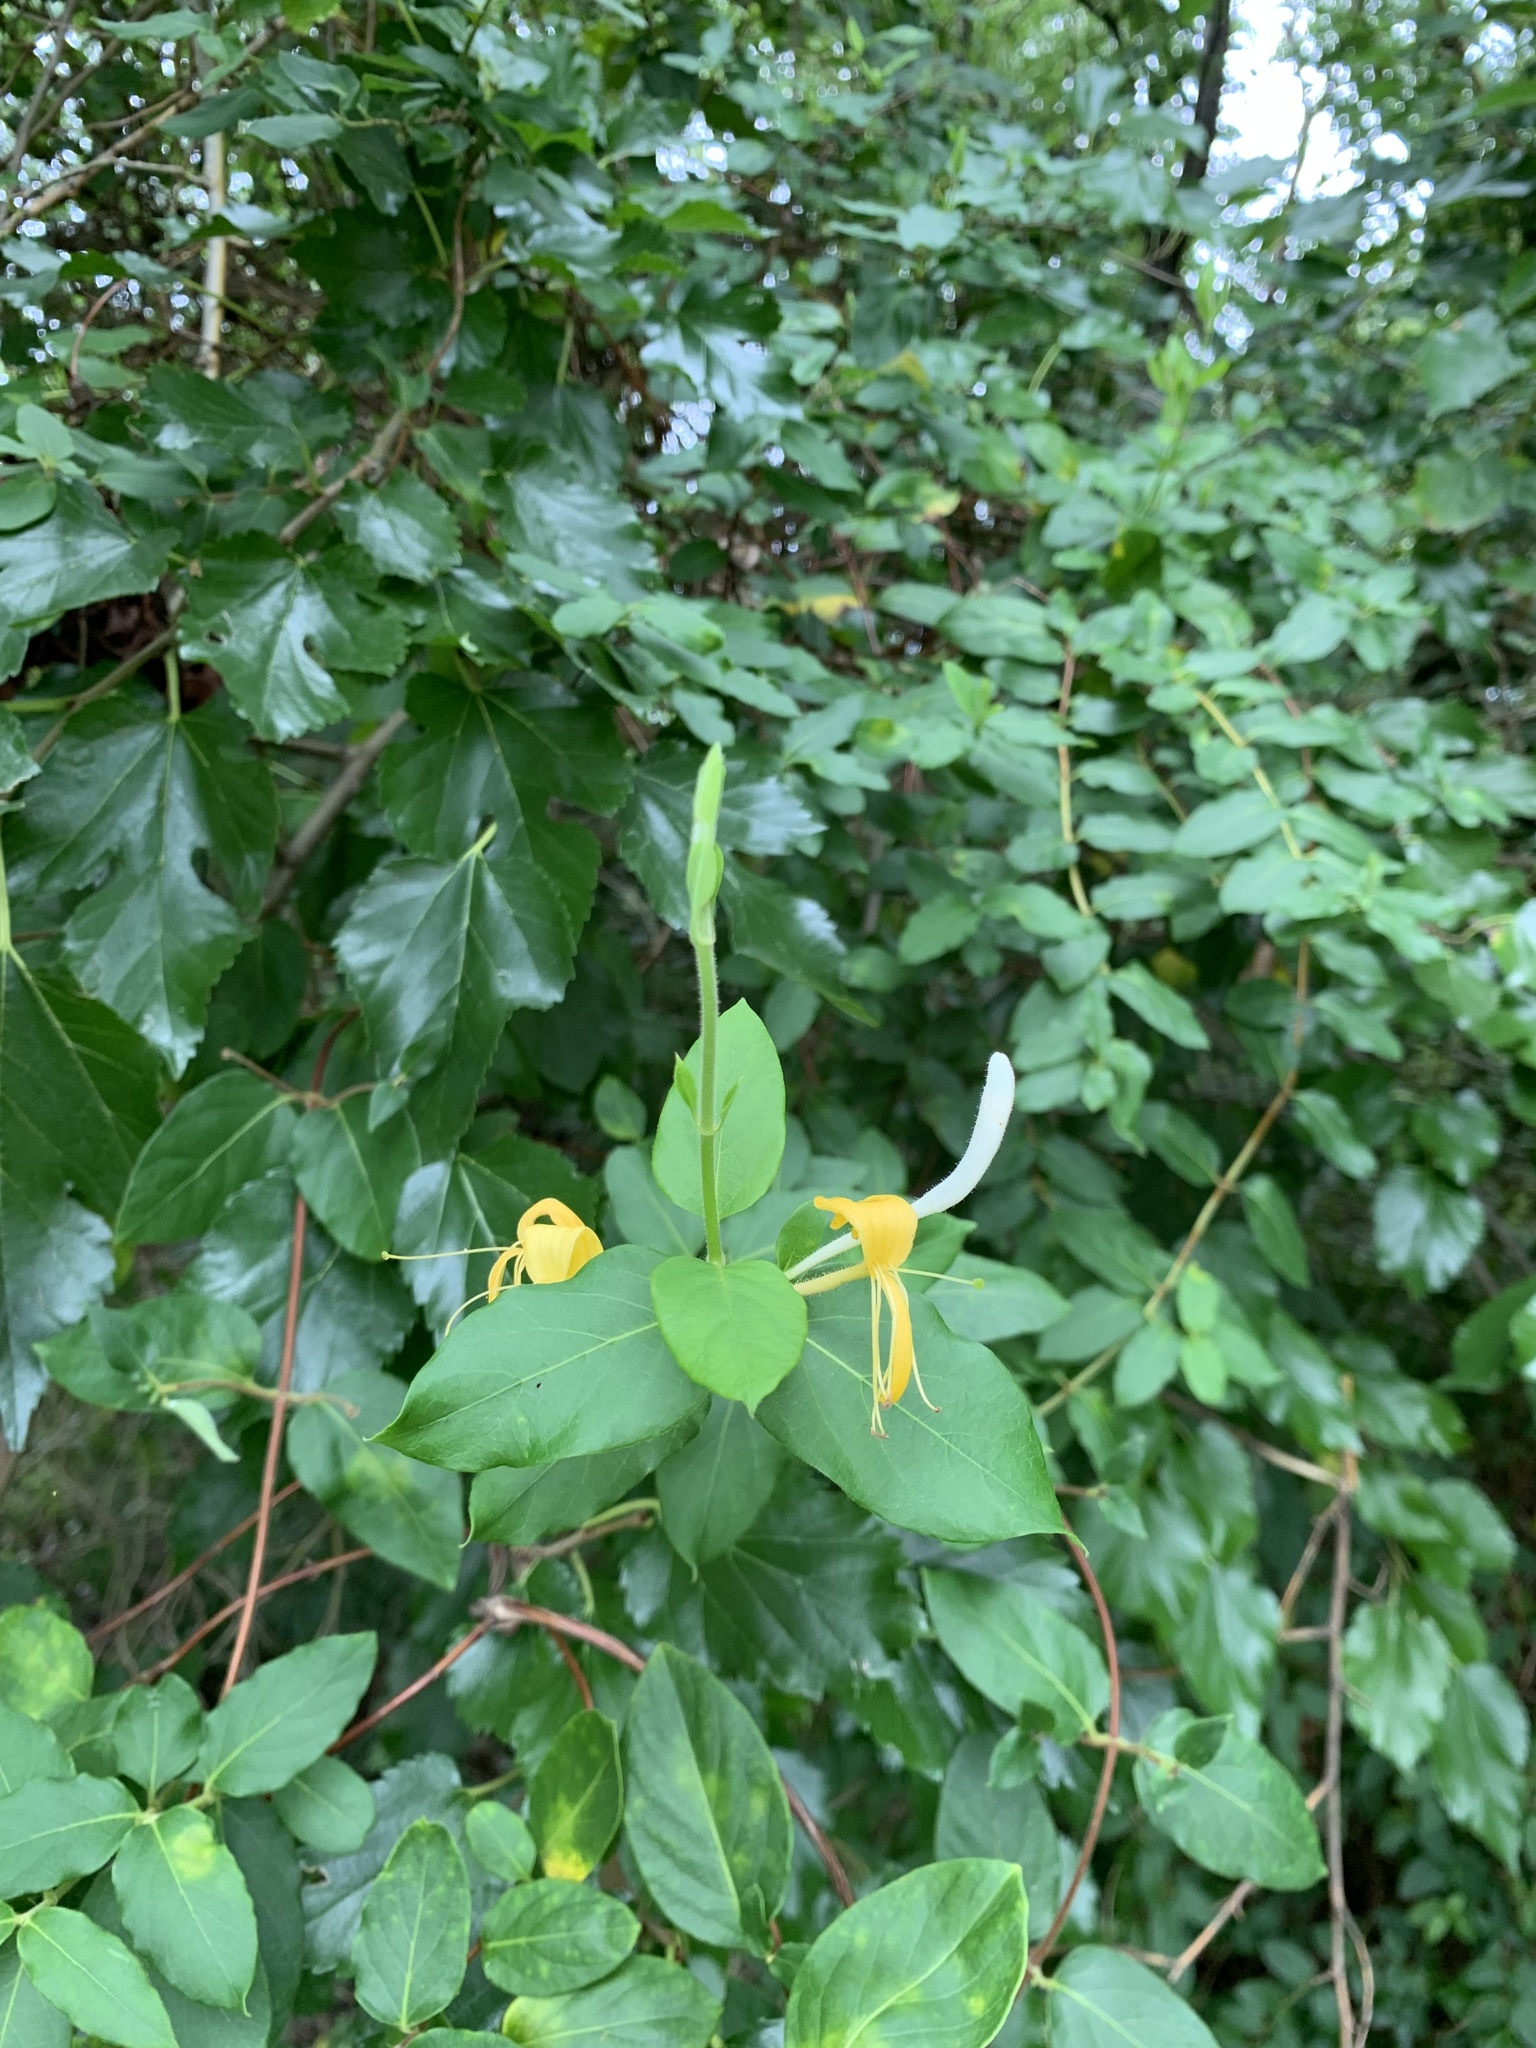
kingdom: Plantae
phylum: Tracheophyta
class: Magnoliopsida
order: Dipsacales
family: Caprifoliaceae
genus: Lonicera
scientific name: Lonicera japonica
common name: Japanese honeysuckle
